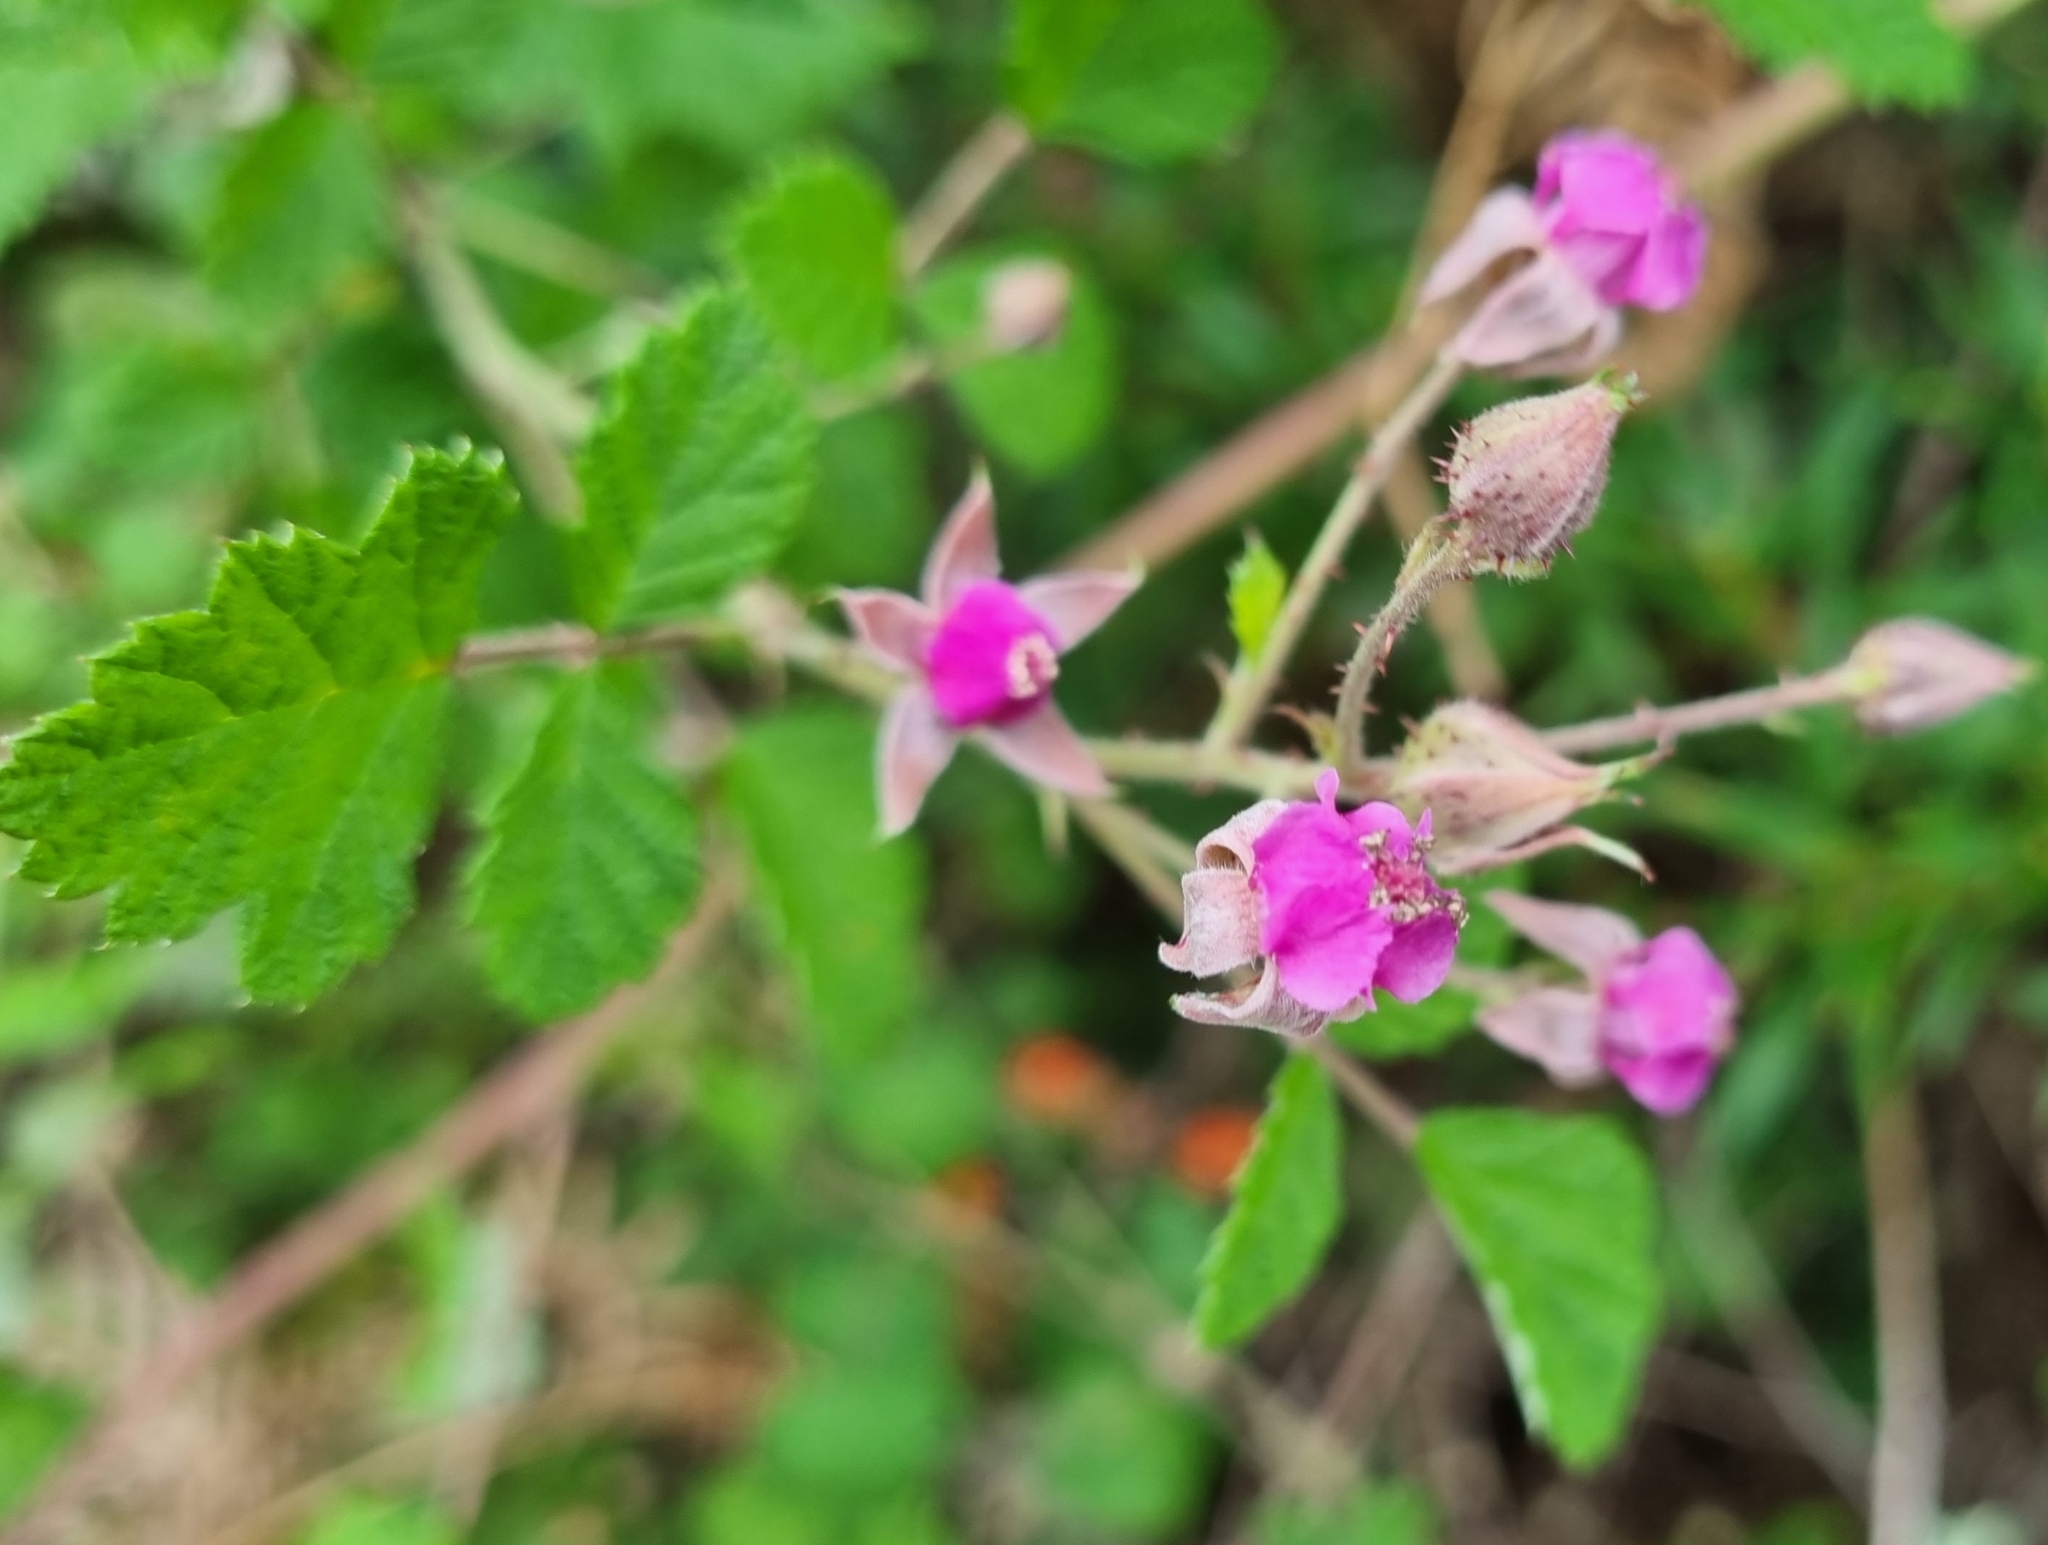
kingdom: Plantae
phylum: Tracheophyta
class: Magnoliopsida
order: Rosales
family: Rosaceae
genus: Rubus
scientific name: Rubus parvifolius
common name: Threeleaf blackberry
